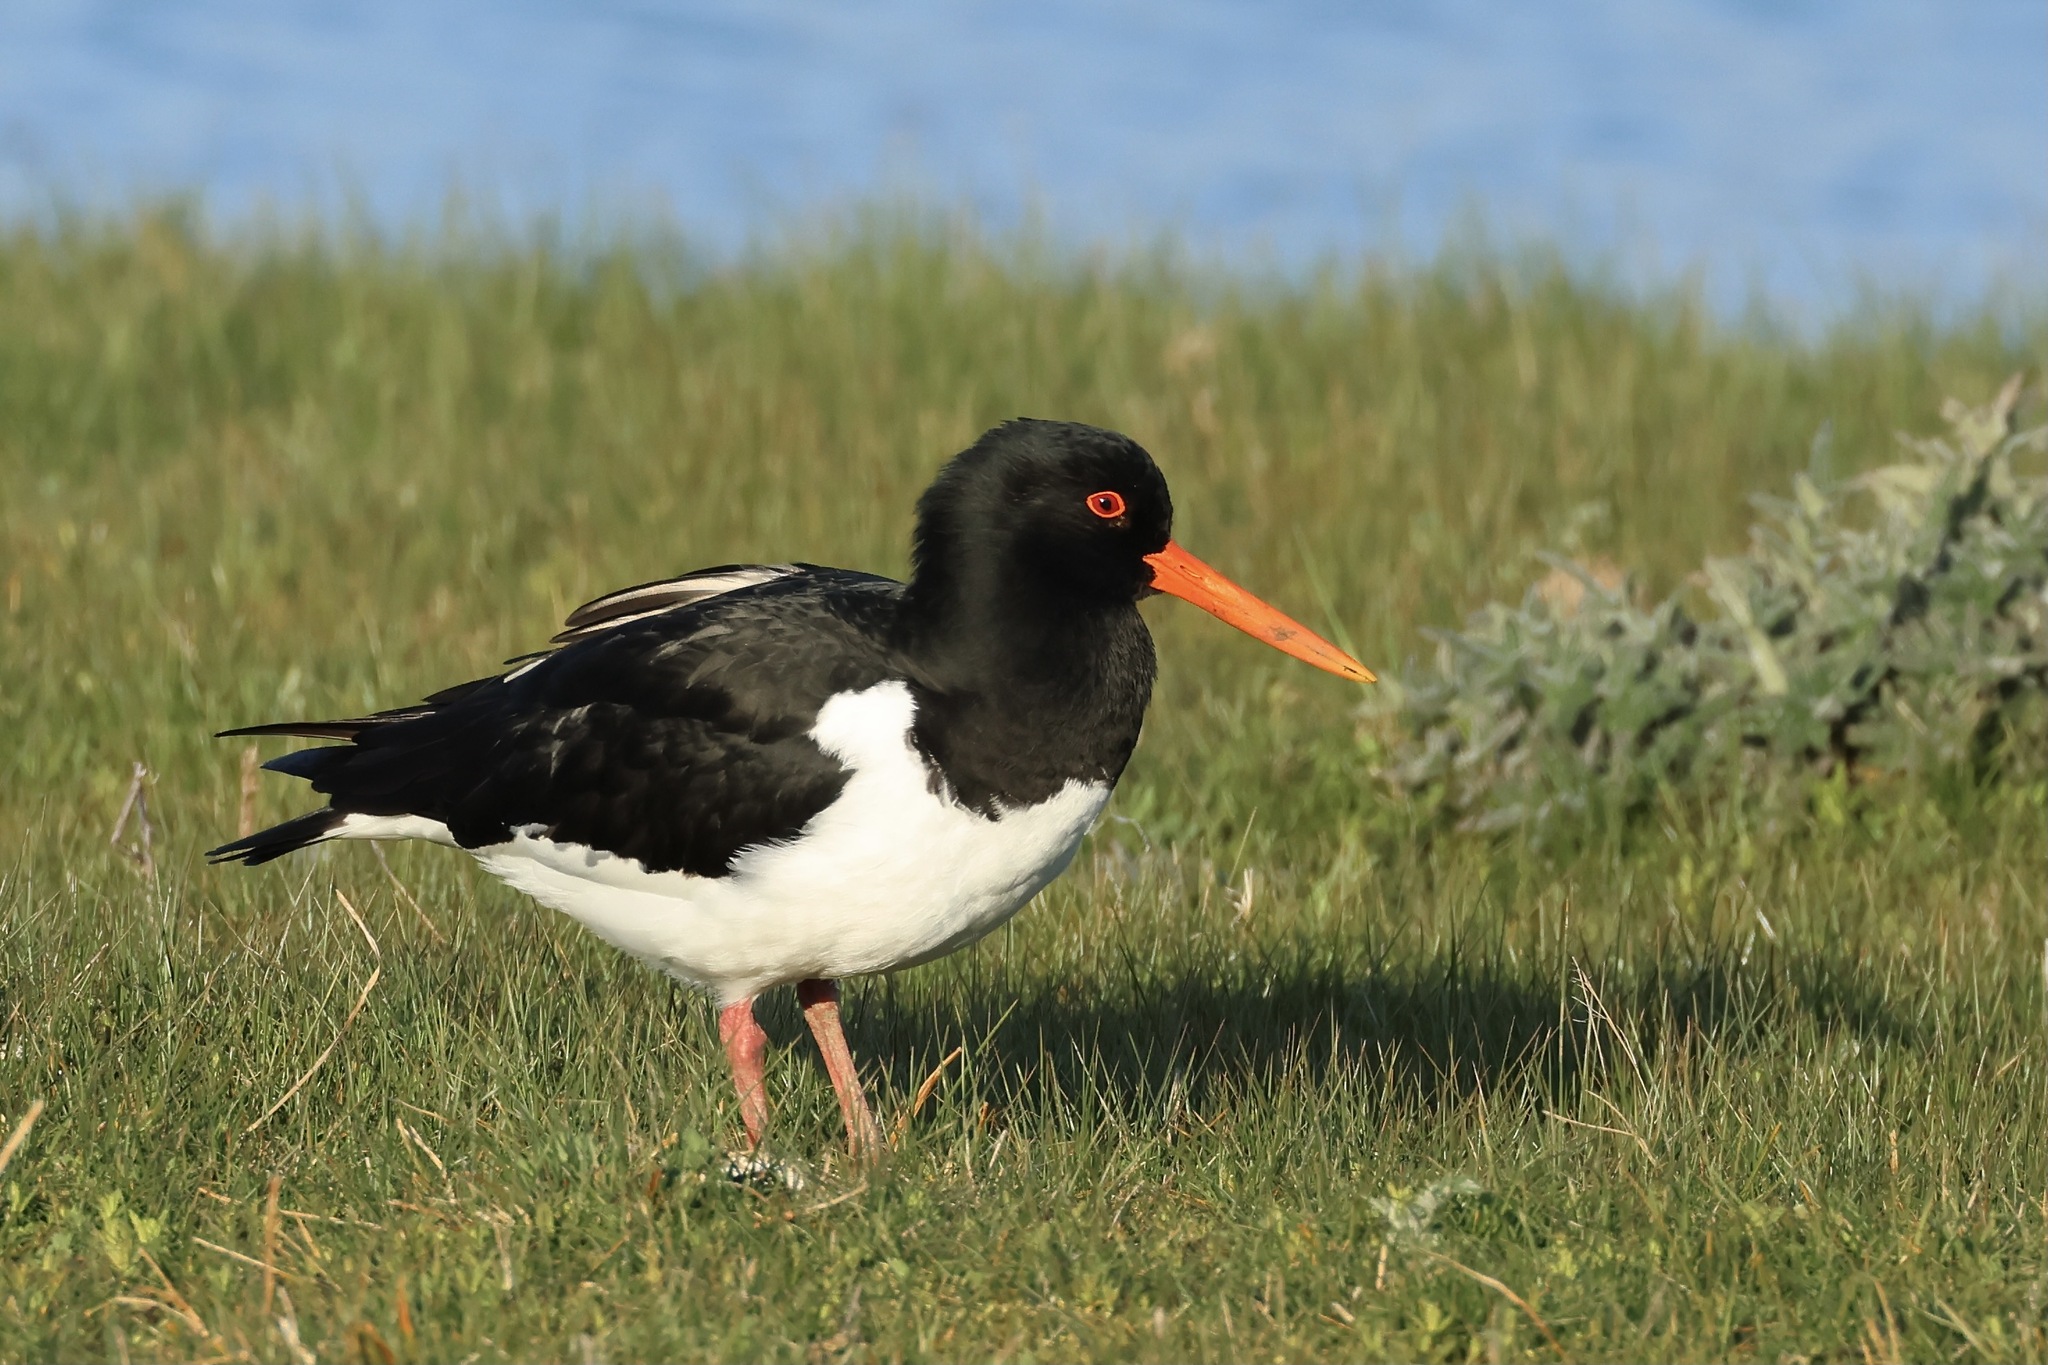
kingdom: Animalia
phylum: Chordata
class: Aves
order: Charadriiformes
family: Haematopodidae
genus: Haematopus
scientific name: Haematopus ostralegus
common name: Eurasian oystercatcher
